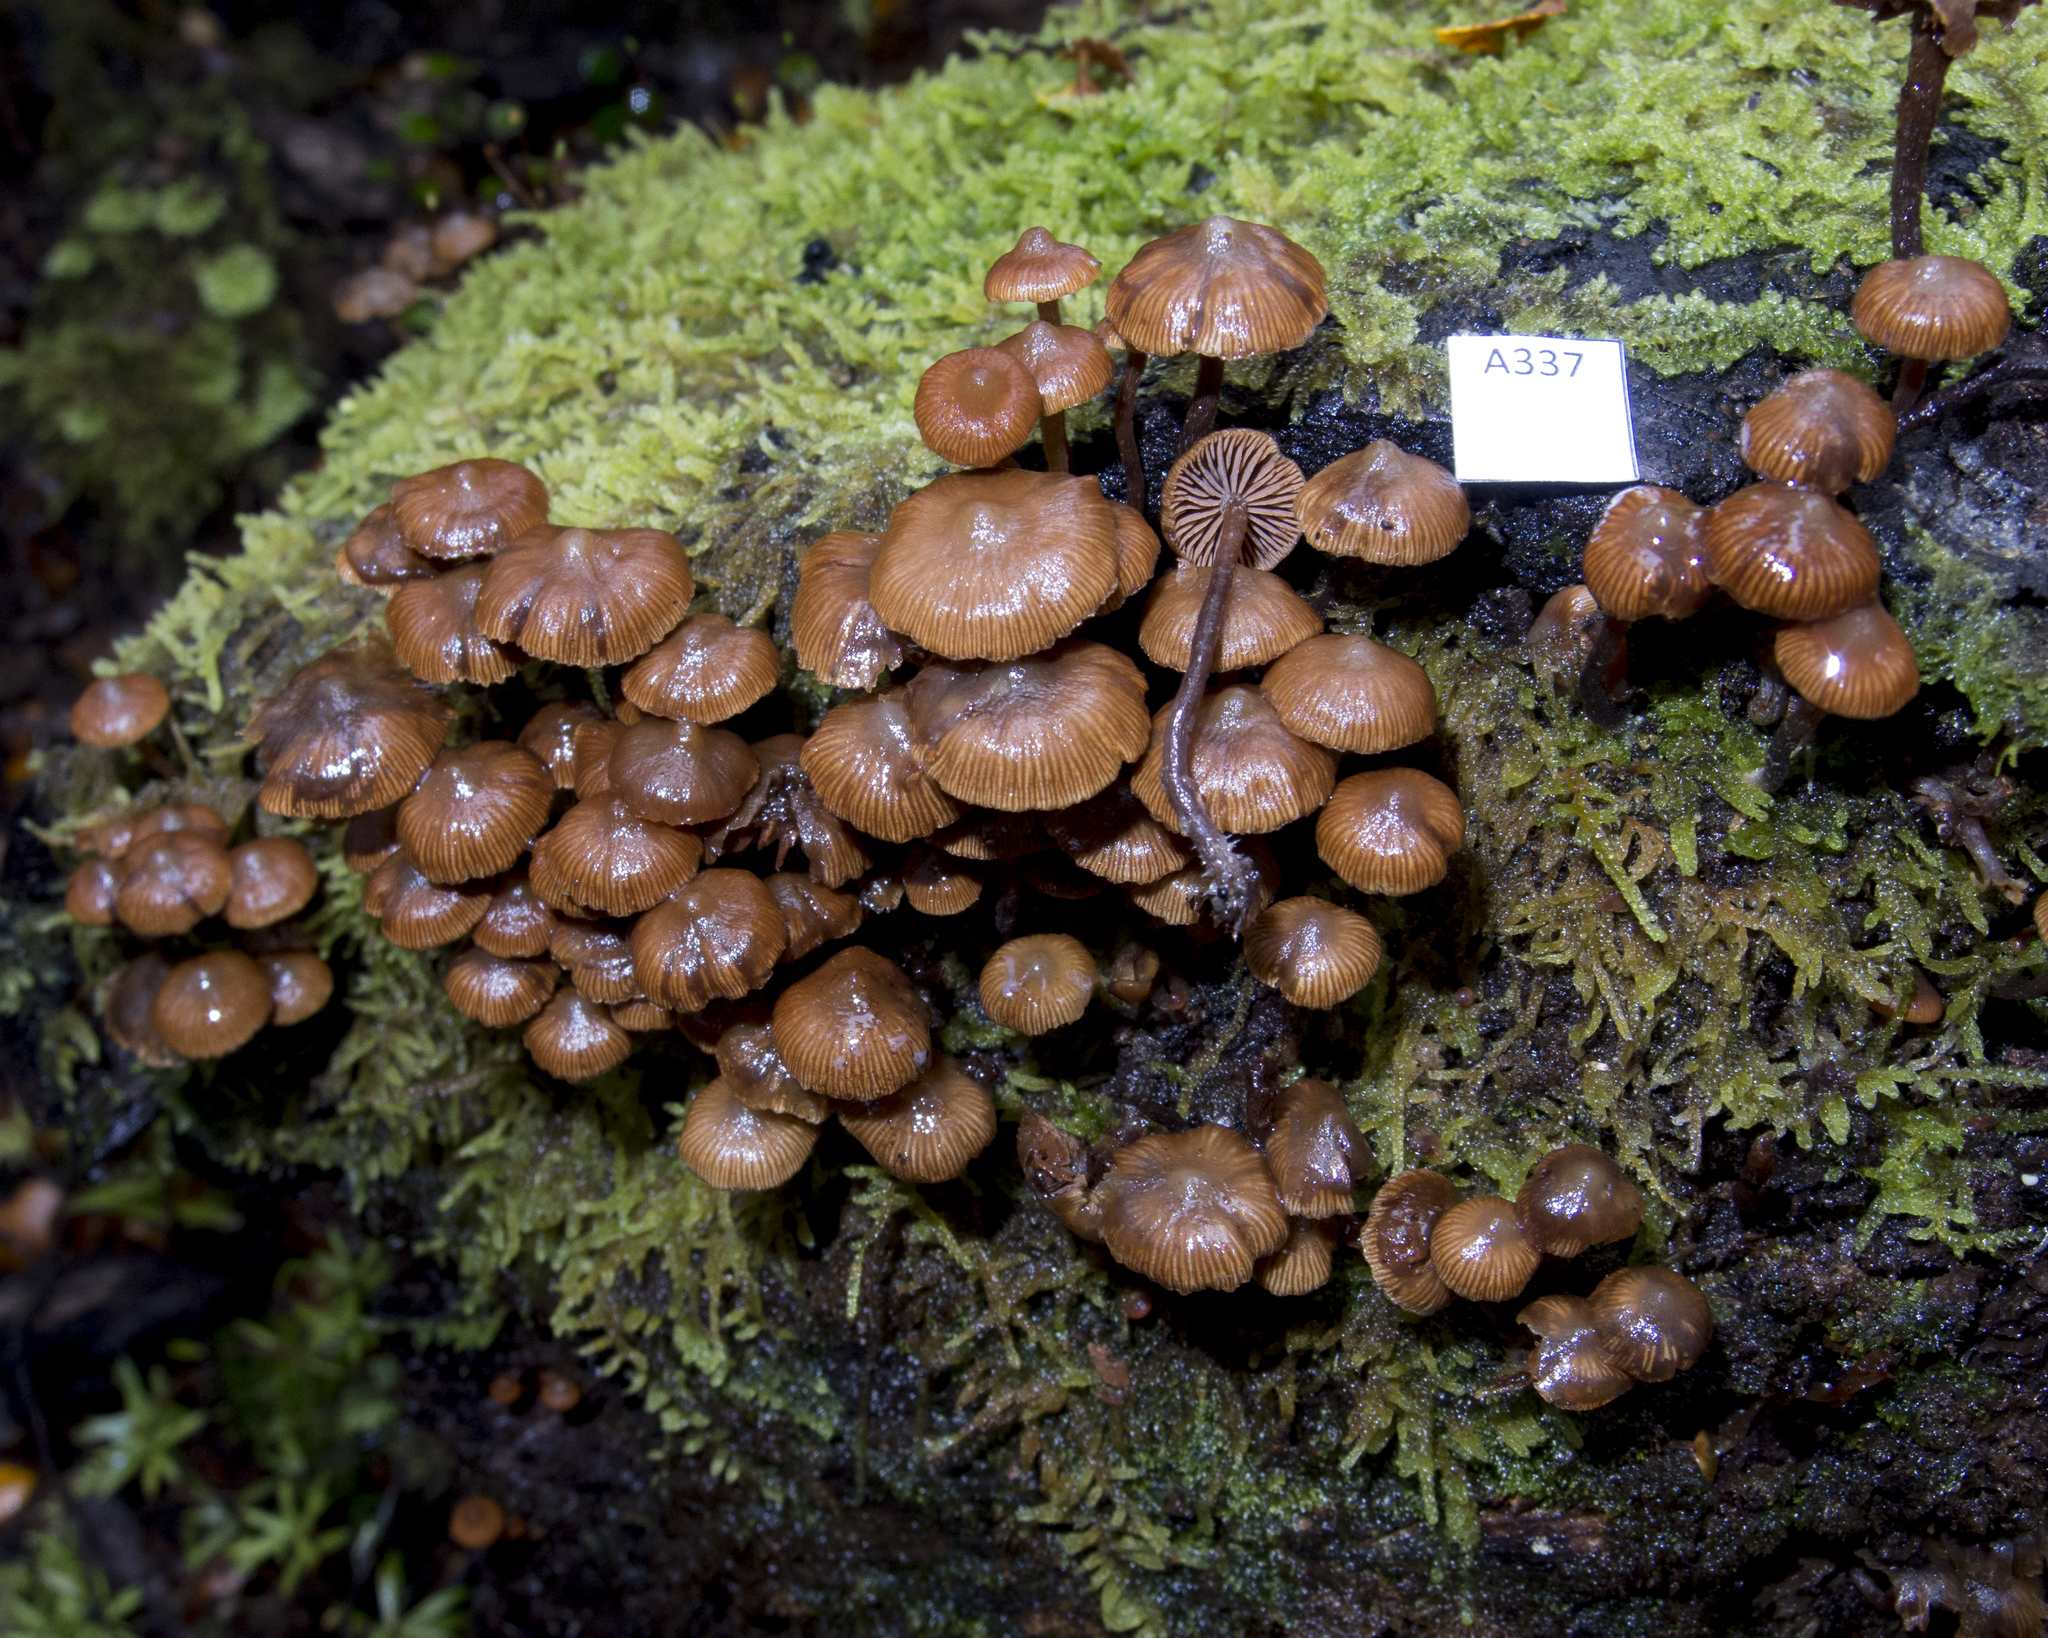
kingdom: Fungi
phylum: Basidiomycota
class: Agaricomycetes
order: Agaricales
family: Strophariaceae
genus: Kuehneromyces
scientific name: Kuehneromyces brunneoalbescens
